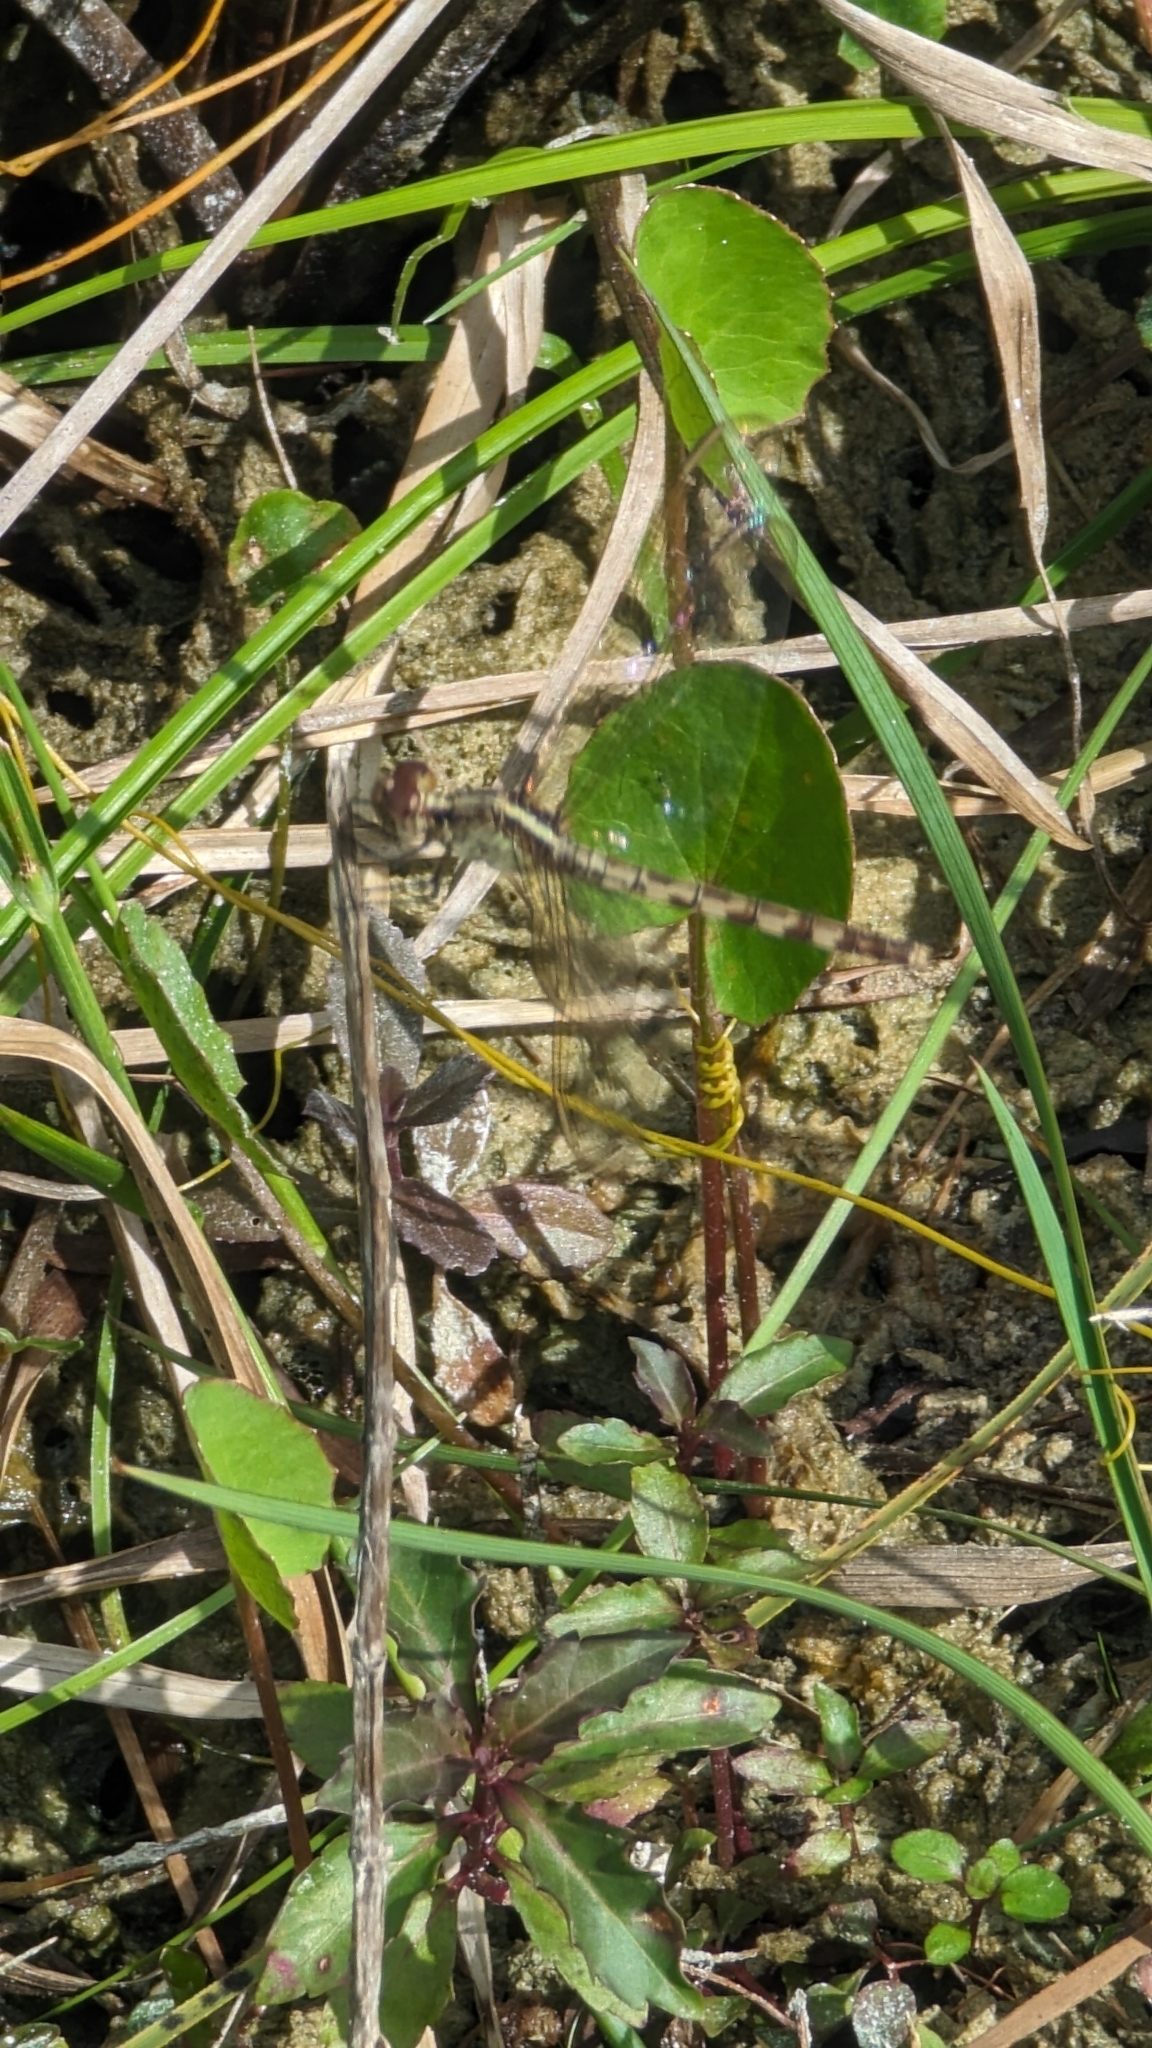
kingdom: Animalia
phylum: Arthropoda
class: Insecta
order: Odonata
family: Libellulidae
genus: Erythrodiplax
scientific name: Erythrodiplax umbrata
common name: Band-winged dragonlet
